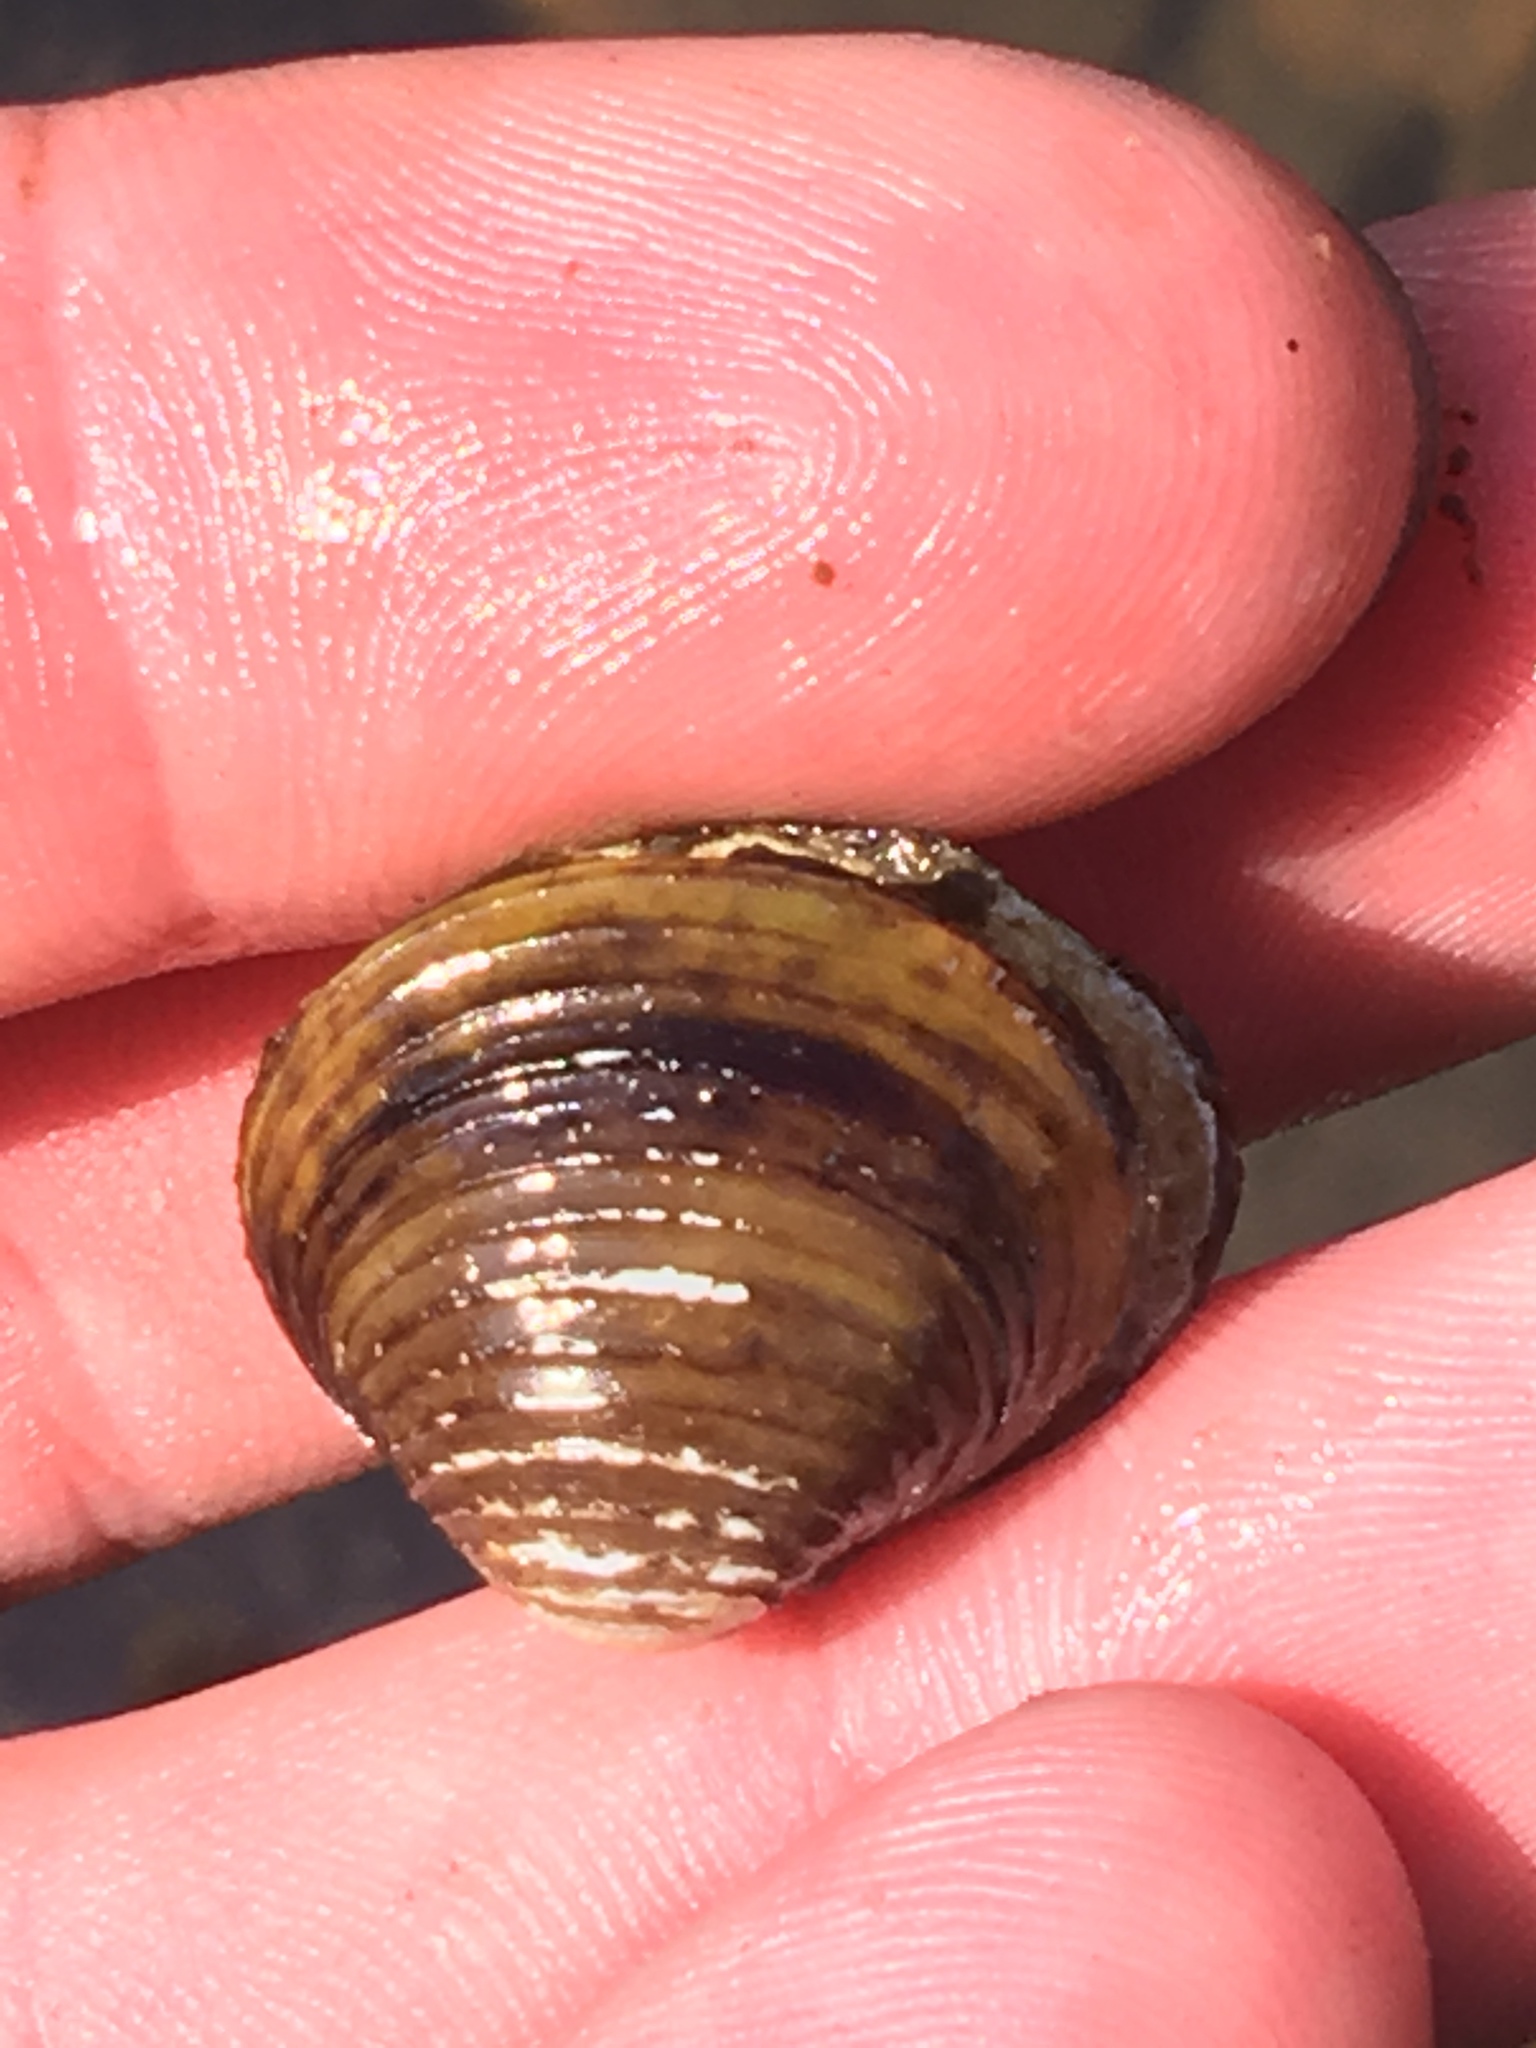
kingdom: Animalia
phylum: Mollusca
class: Bivalvia
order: Venerida
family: Cyrenidae
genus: Corbicula
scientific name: Corbicula fluminea
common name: Asian clam
